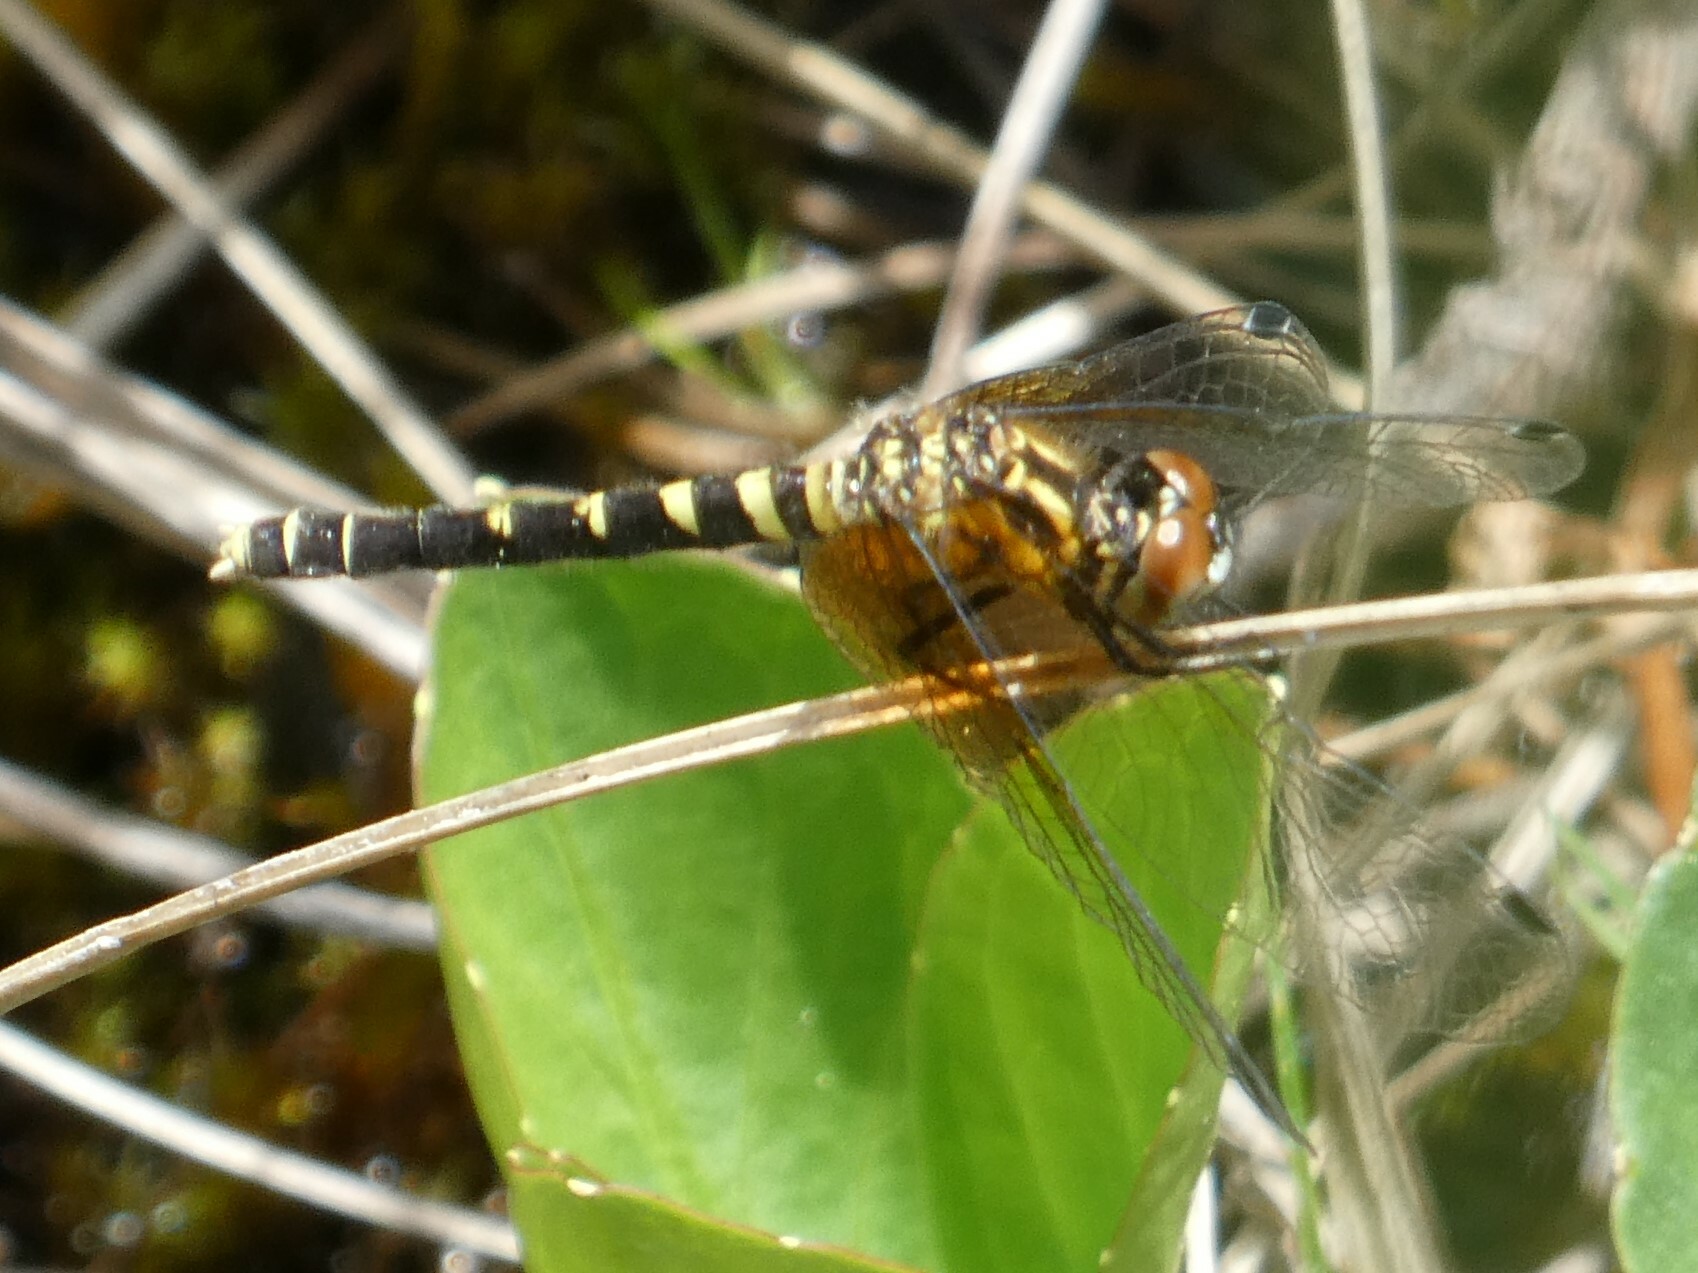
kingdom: Animalia
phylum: Arthropoda
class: Insecta
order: Odonata
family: Libellulidae
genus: Nannothemis
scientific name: Nannothemis bella
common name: Elfin skimmer
